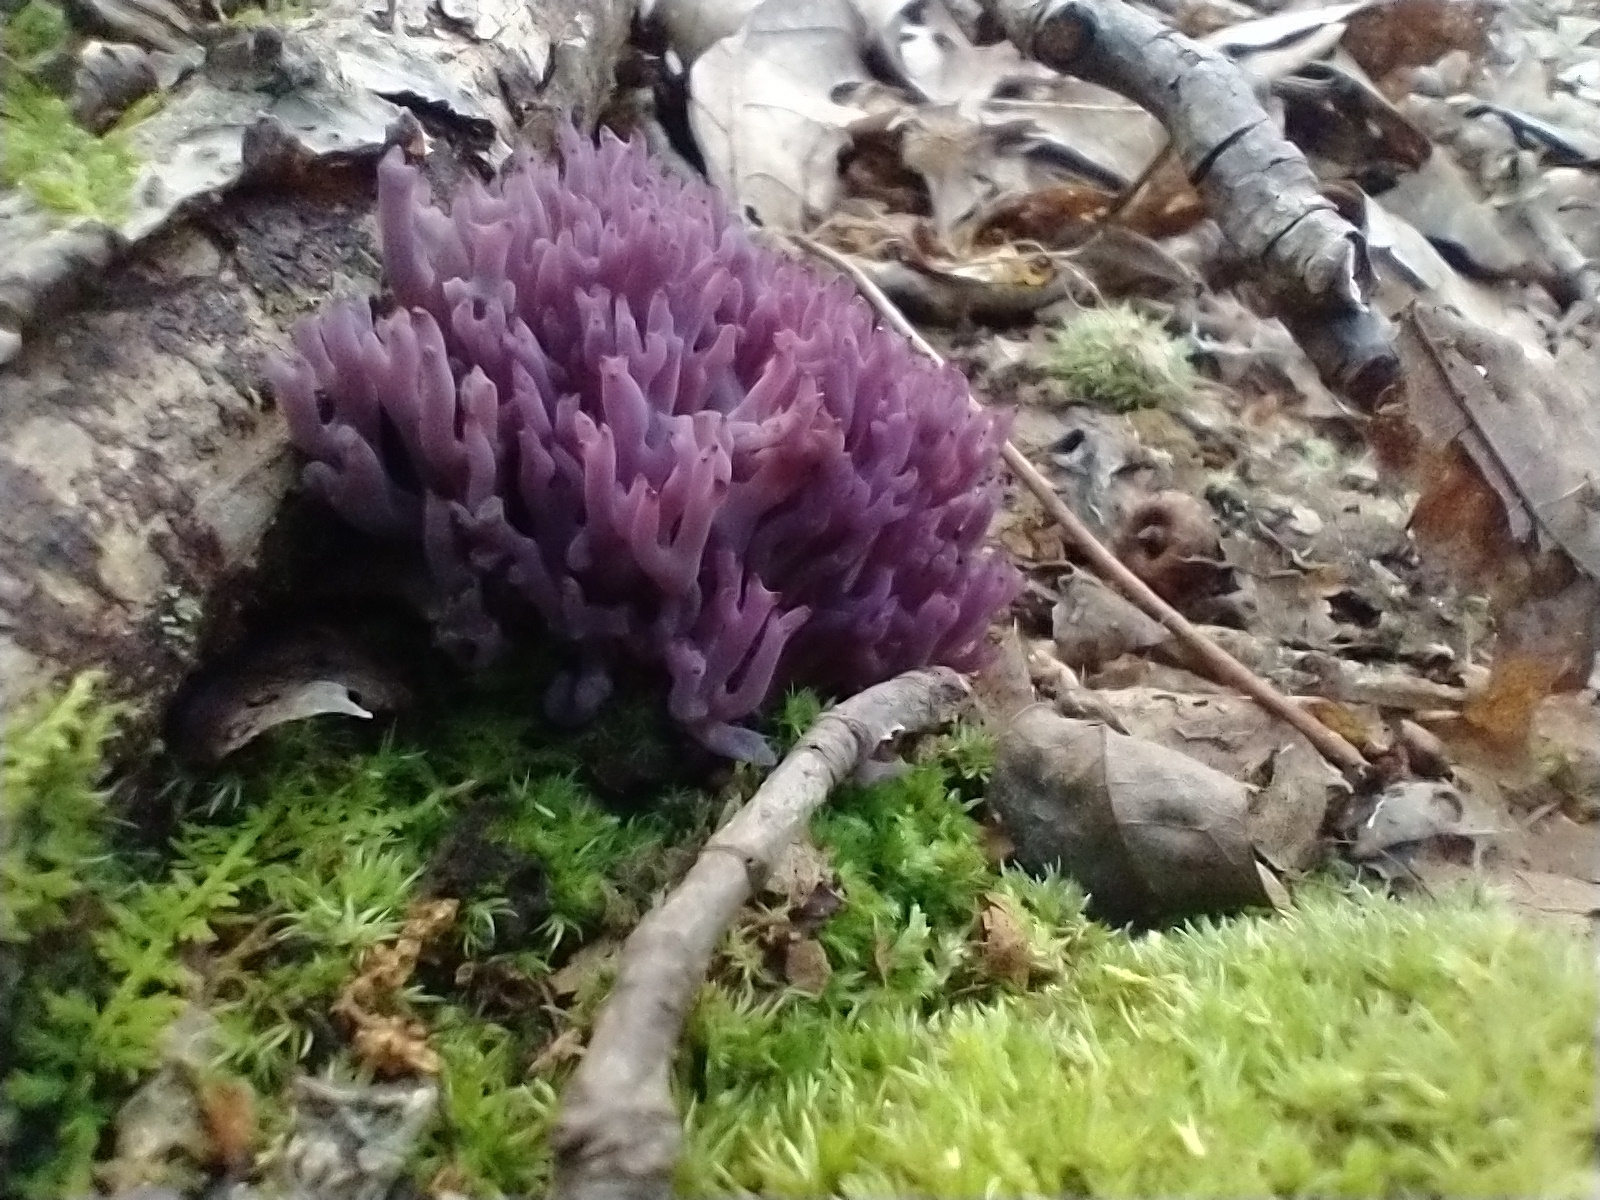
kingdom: Fungi
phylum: Basidiomycota
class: Agaricomycetes
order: Agaricales
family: Clavariaceae
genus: Clavaria
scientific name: Clavaria zollingeri
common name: Violet coral
